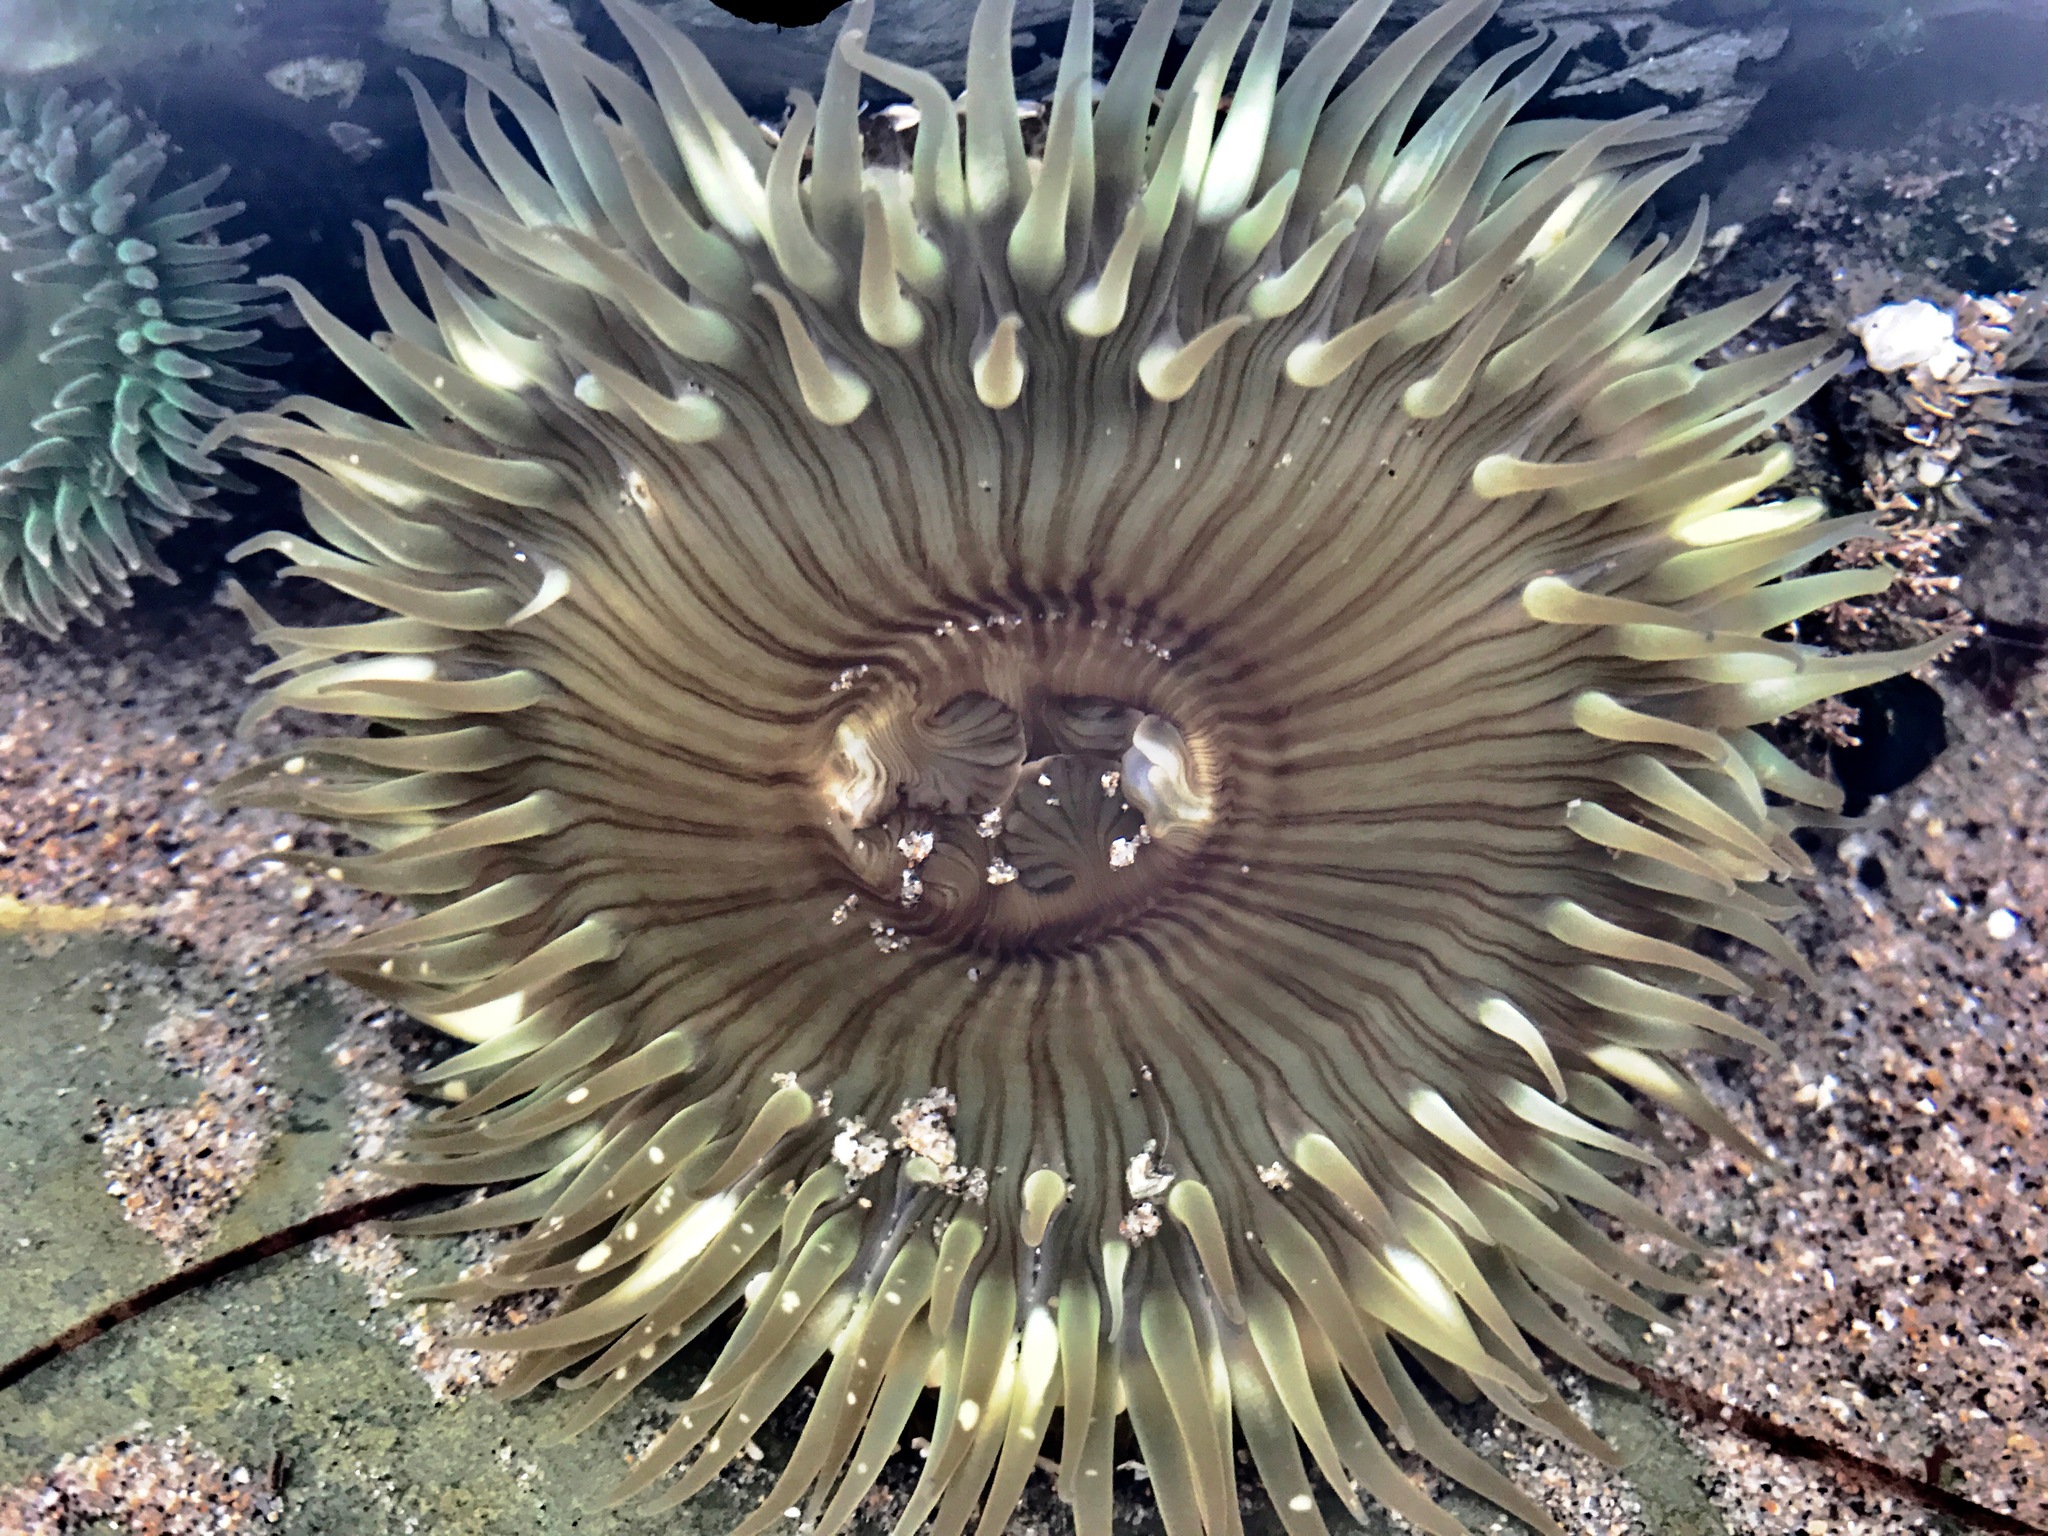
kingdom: Animalia
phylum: Cnidaria
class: Anthozoa
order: Actiniaria
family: Actiniidae
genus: Anthopleura
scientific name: Anthopleura sola
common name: Sun anemone
